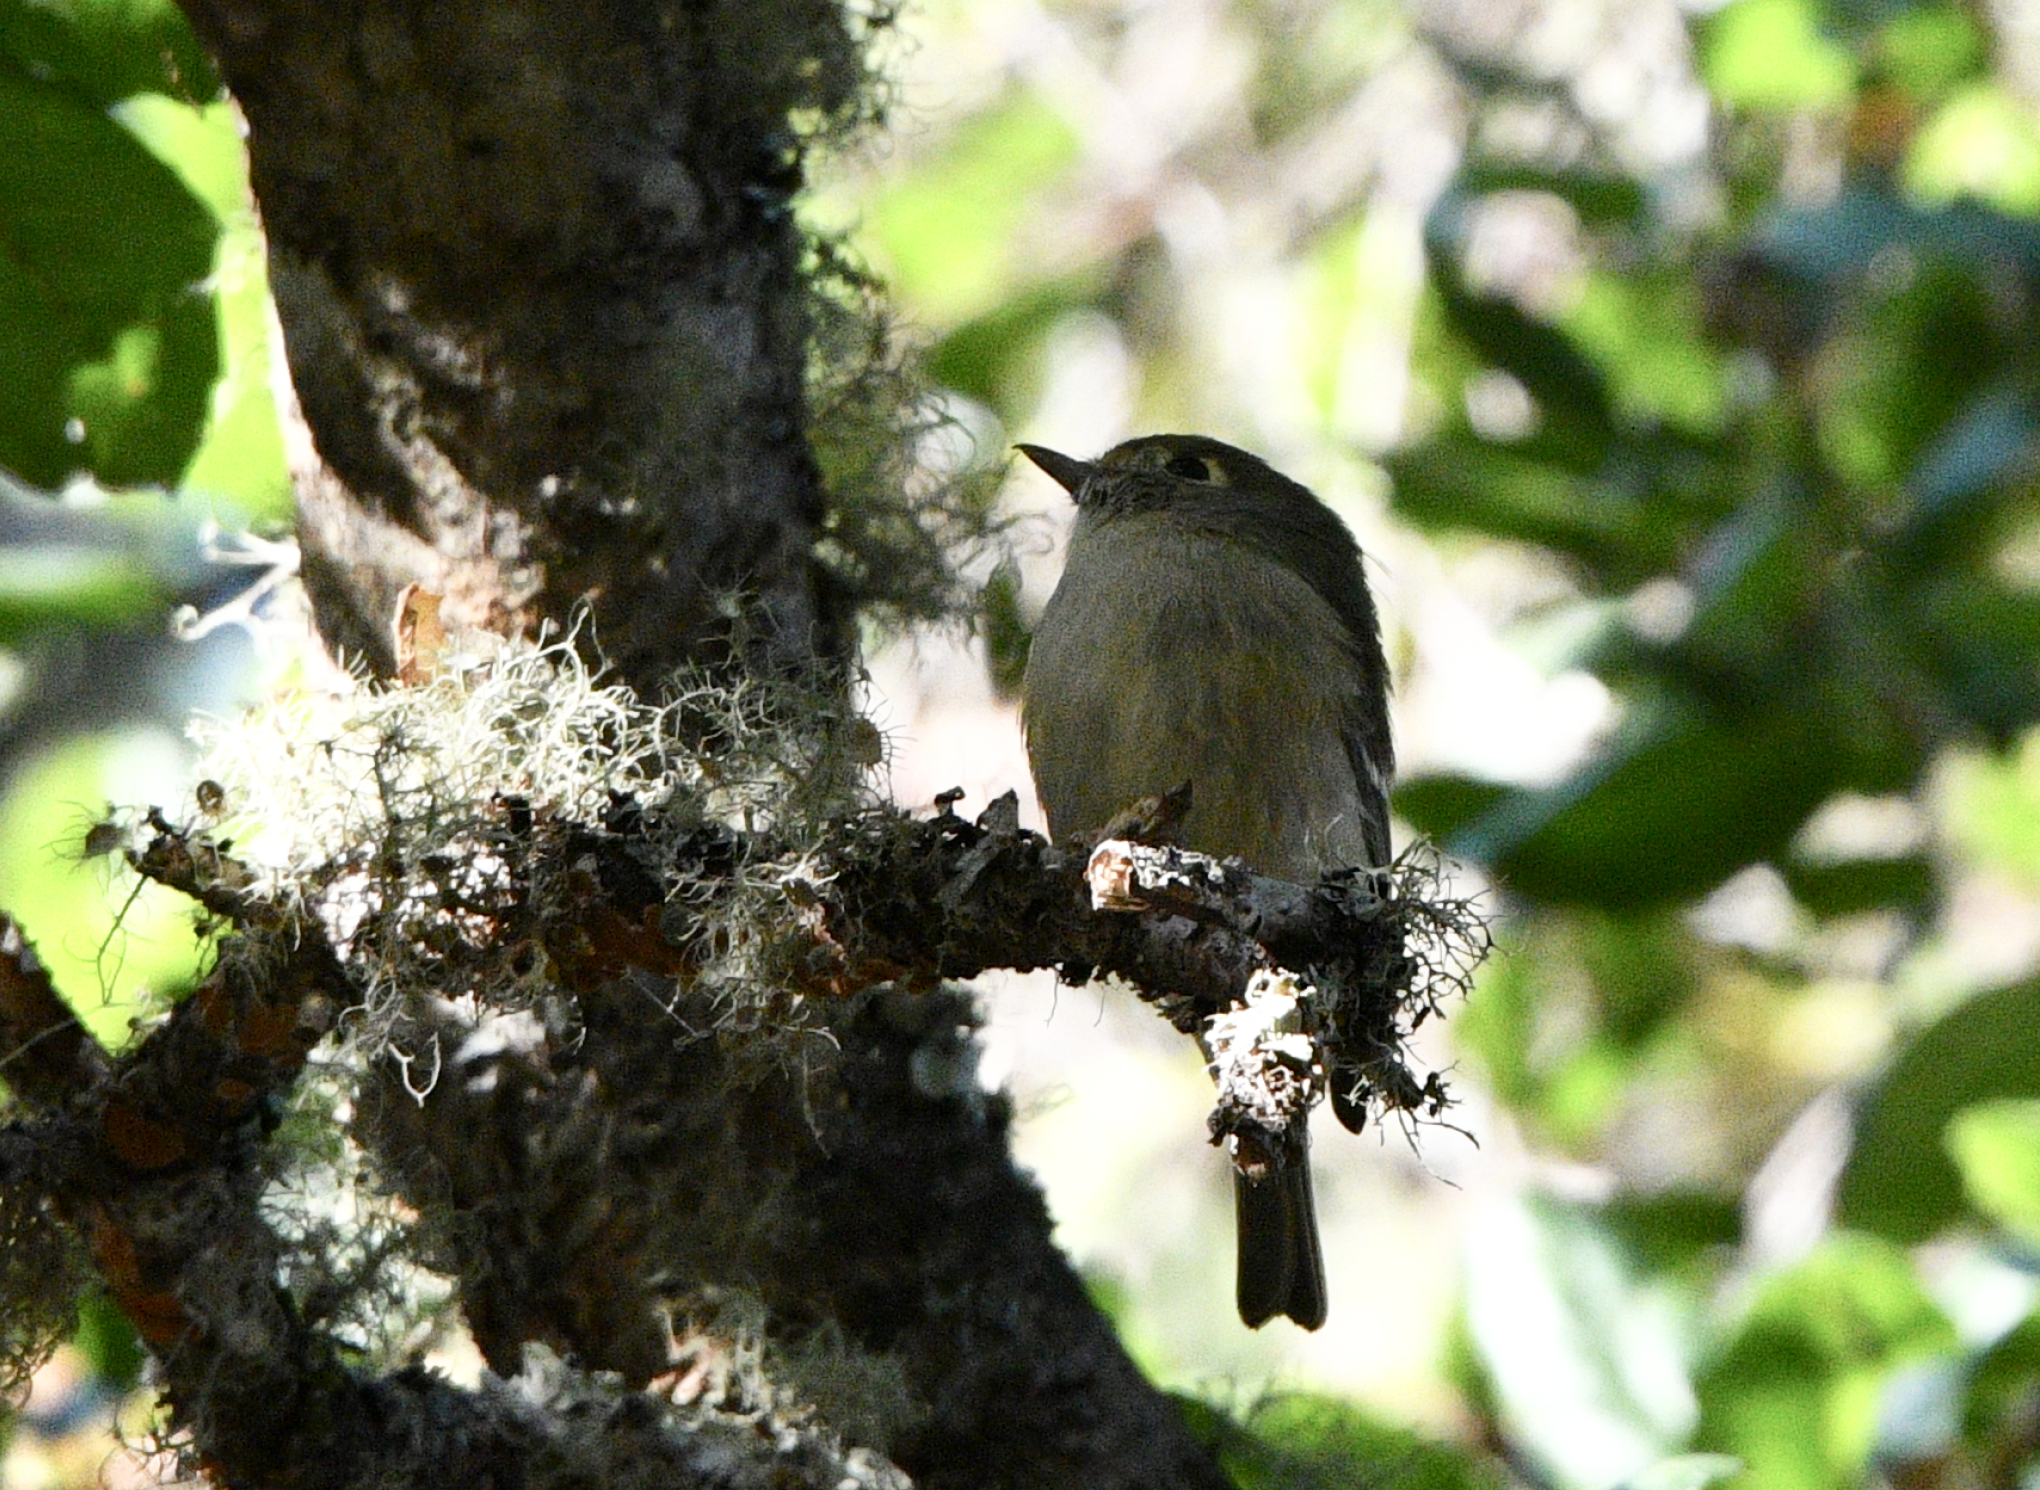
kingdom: Animalia
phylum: Chordata
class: Aves
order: Passeriformes
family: Vireonidae
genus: Vireo
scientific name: Vireo huttoni
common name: Hutton's vireo
